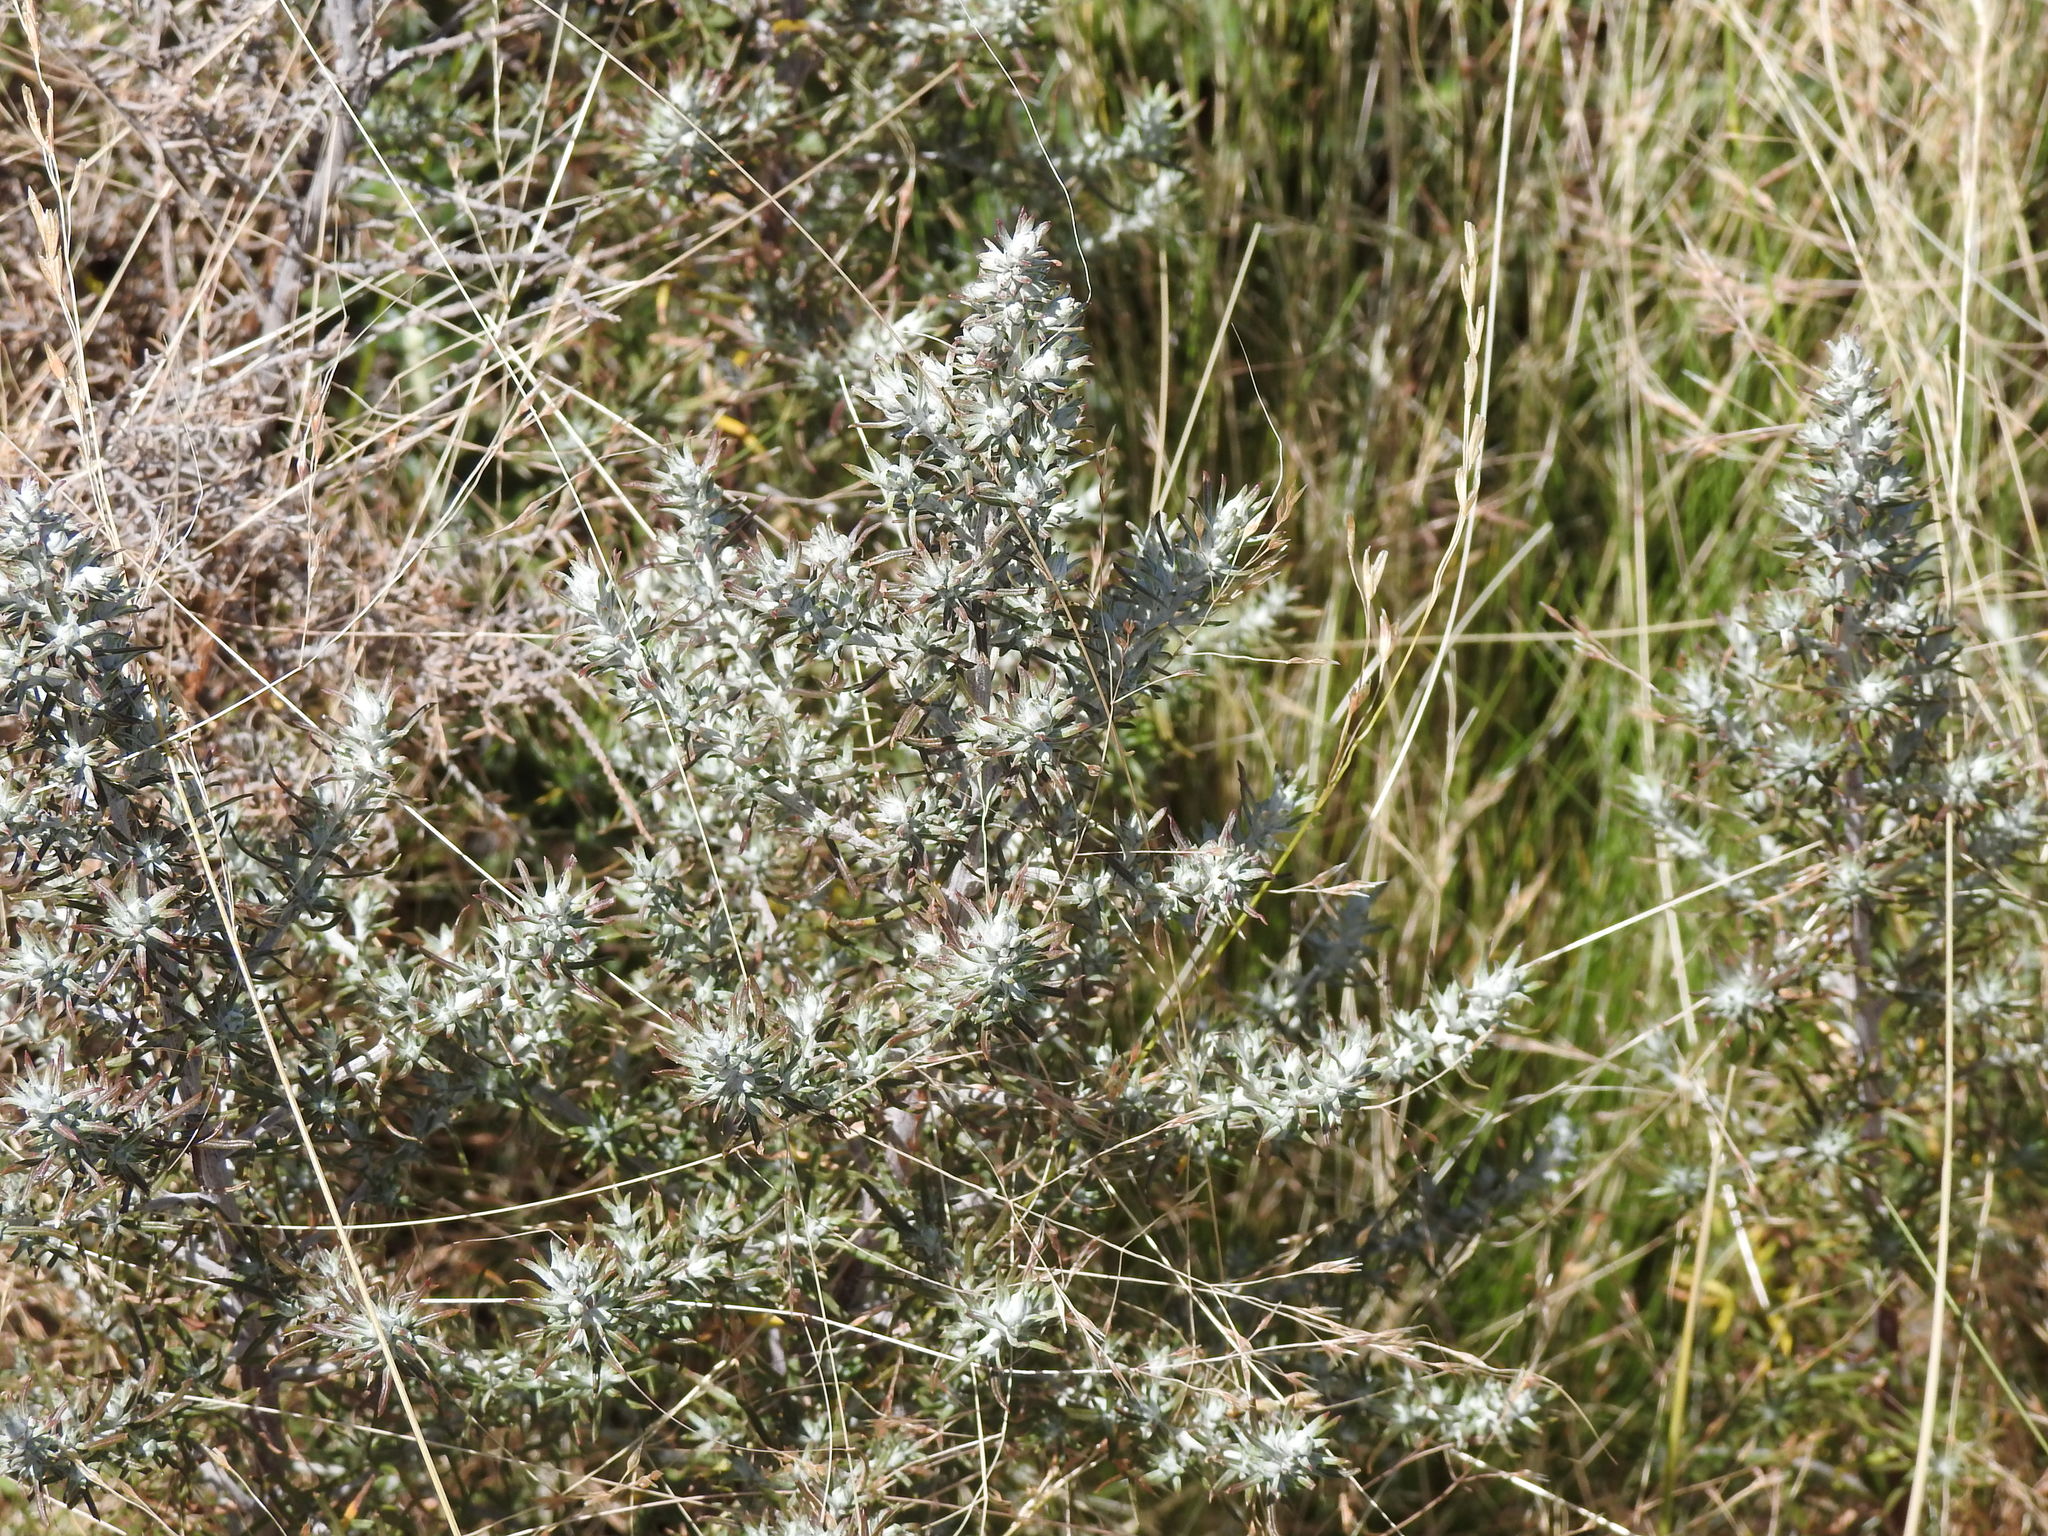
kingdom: Plantae
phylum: Tracheophyta
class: Magnoliopsida
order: Asterales
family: Asteraceae
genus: Baccharis
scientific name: Baccharis artemisioides
